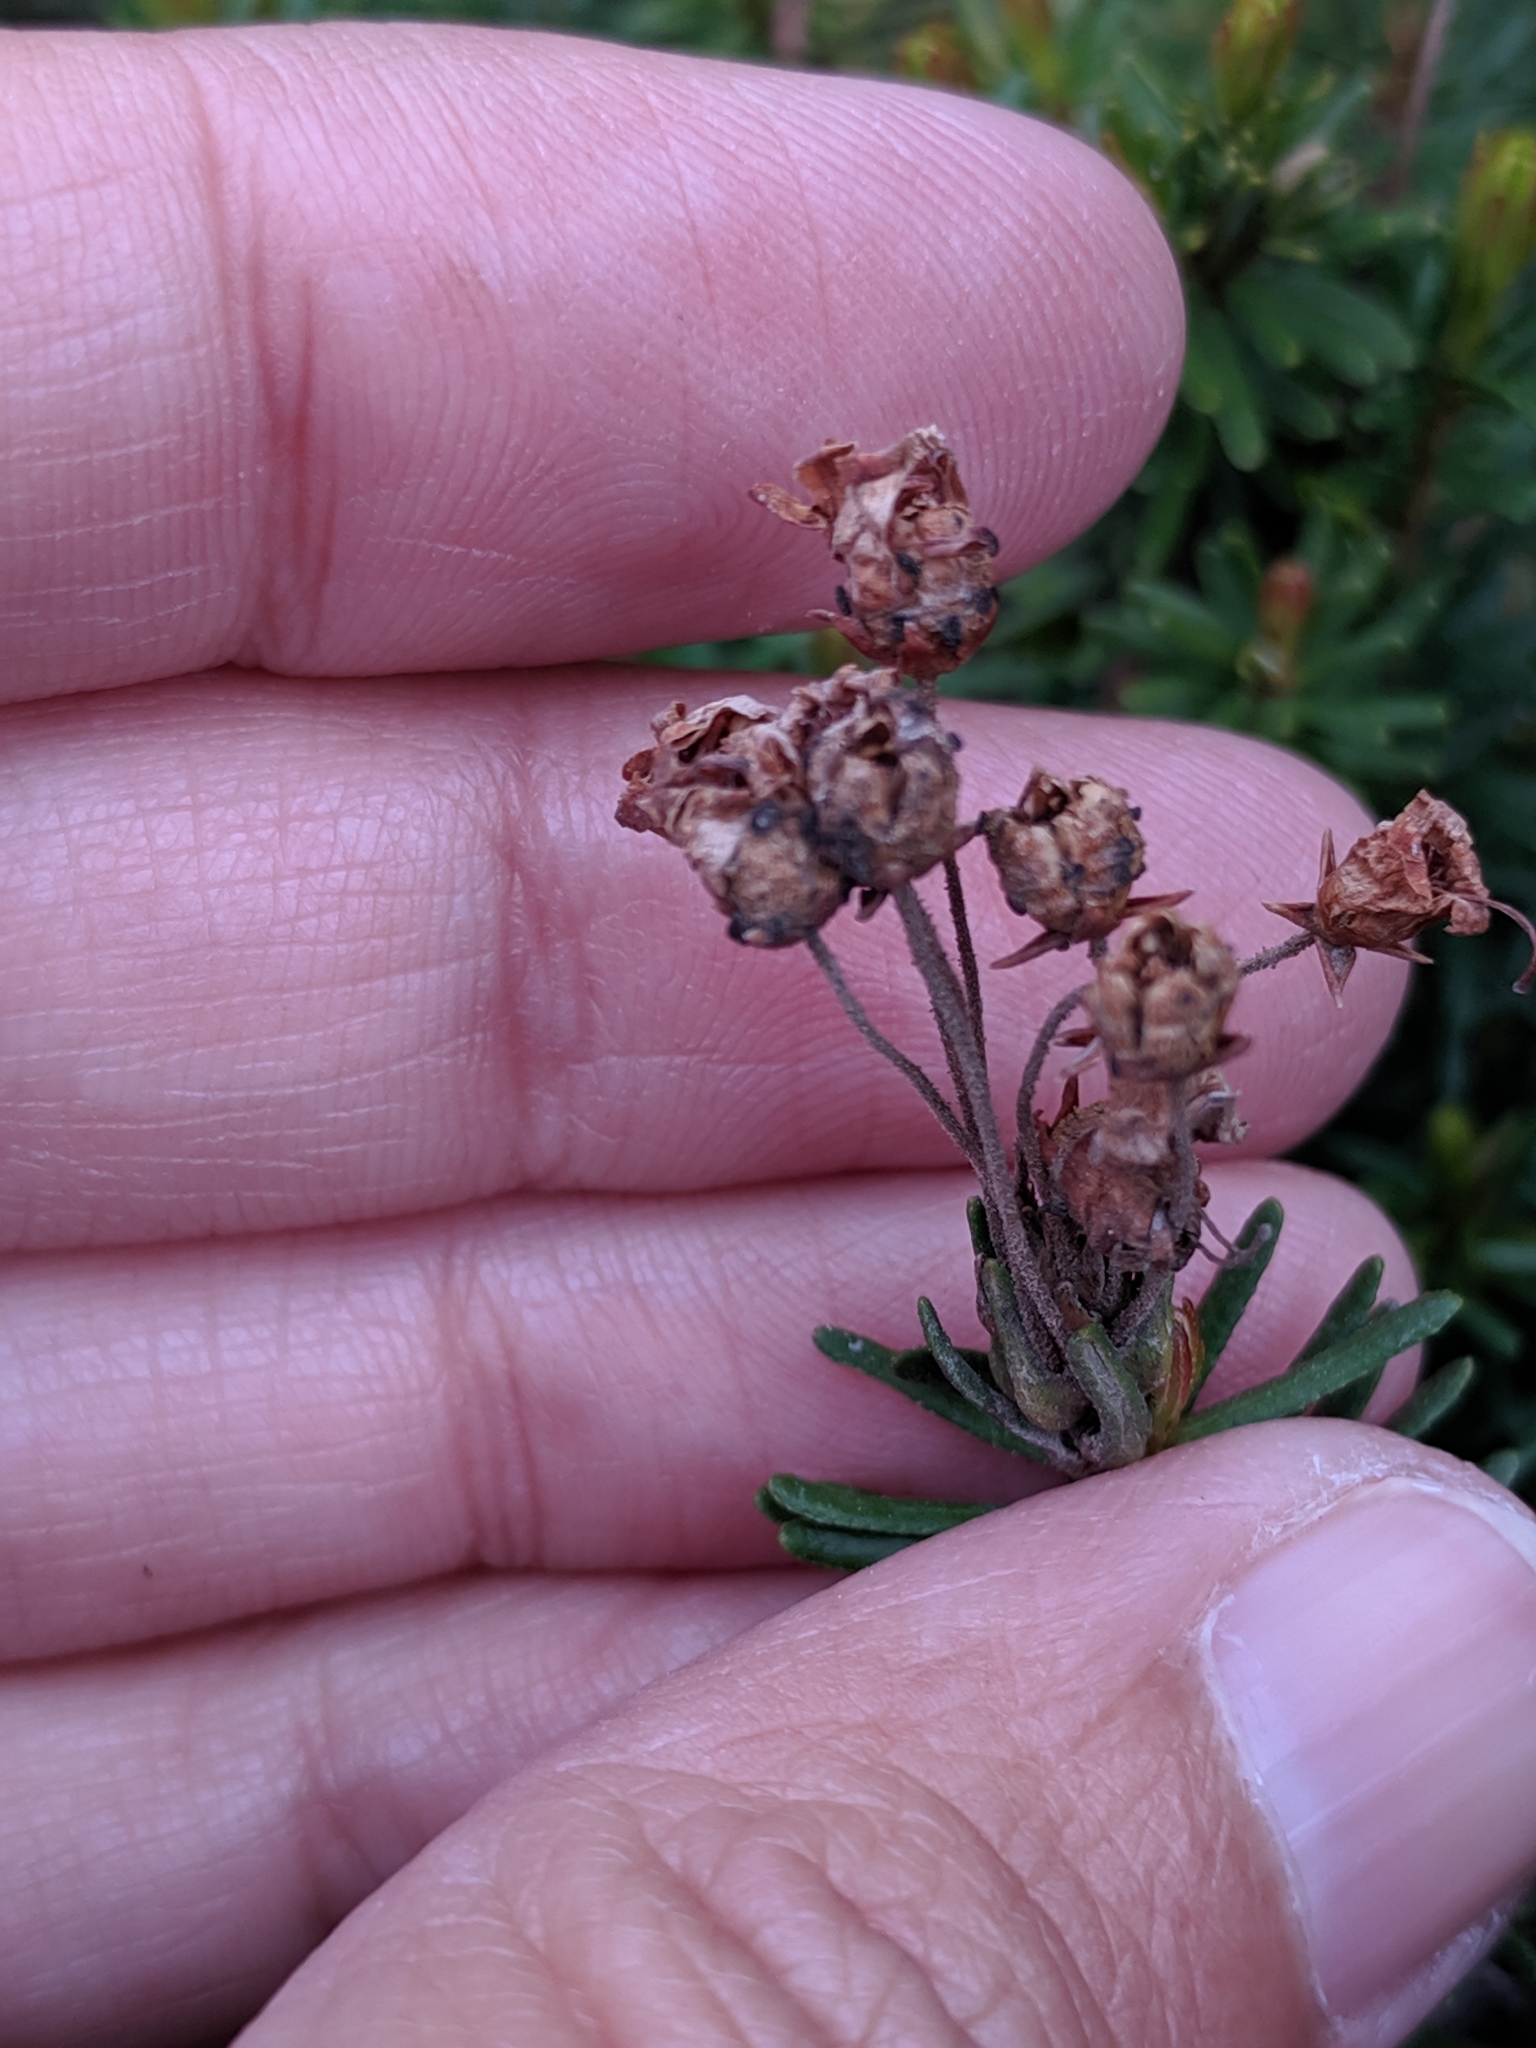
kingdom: Plantae
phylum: Tracheophyta
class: Magnoliopsida
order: Ericales
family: Ericaceae
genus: Phyllodoce
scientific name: Phyllodoce empetriformis
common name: Pink mountain heather
